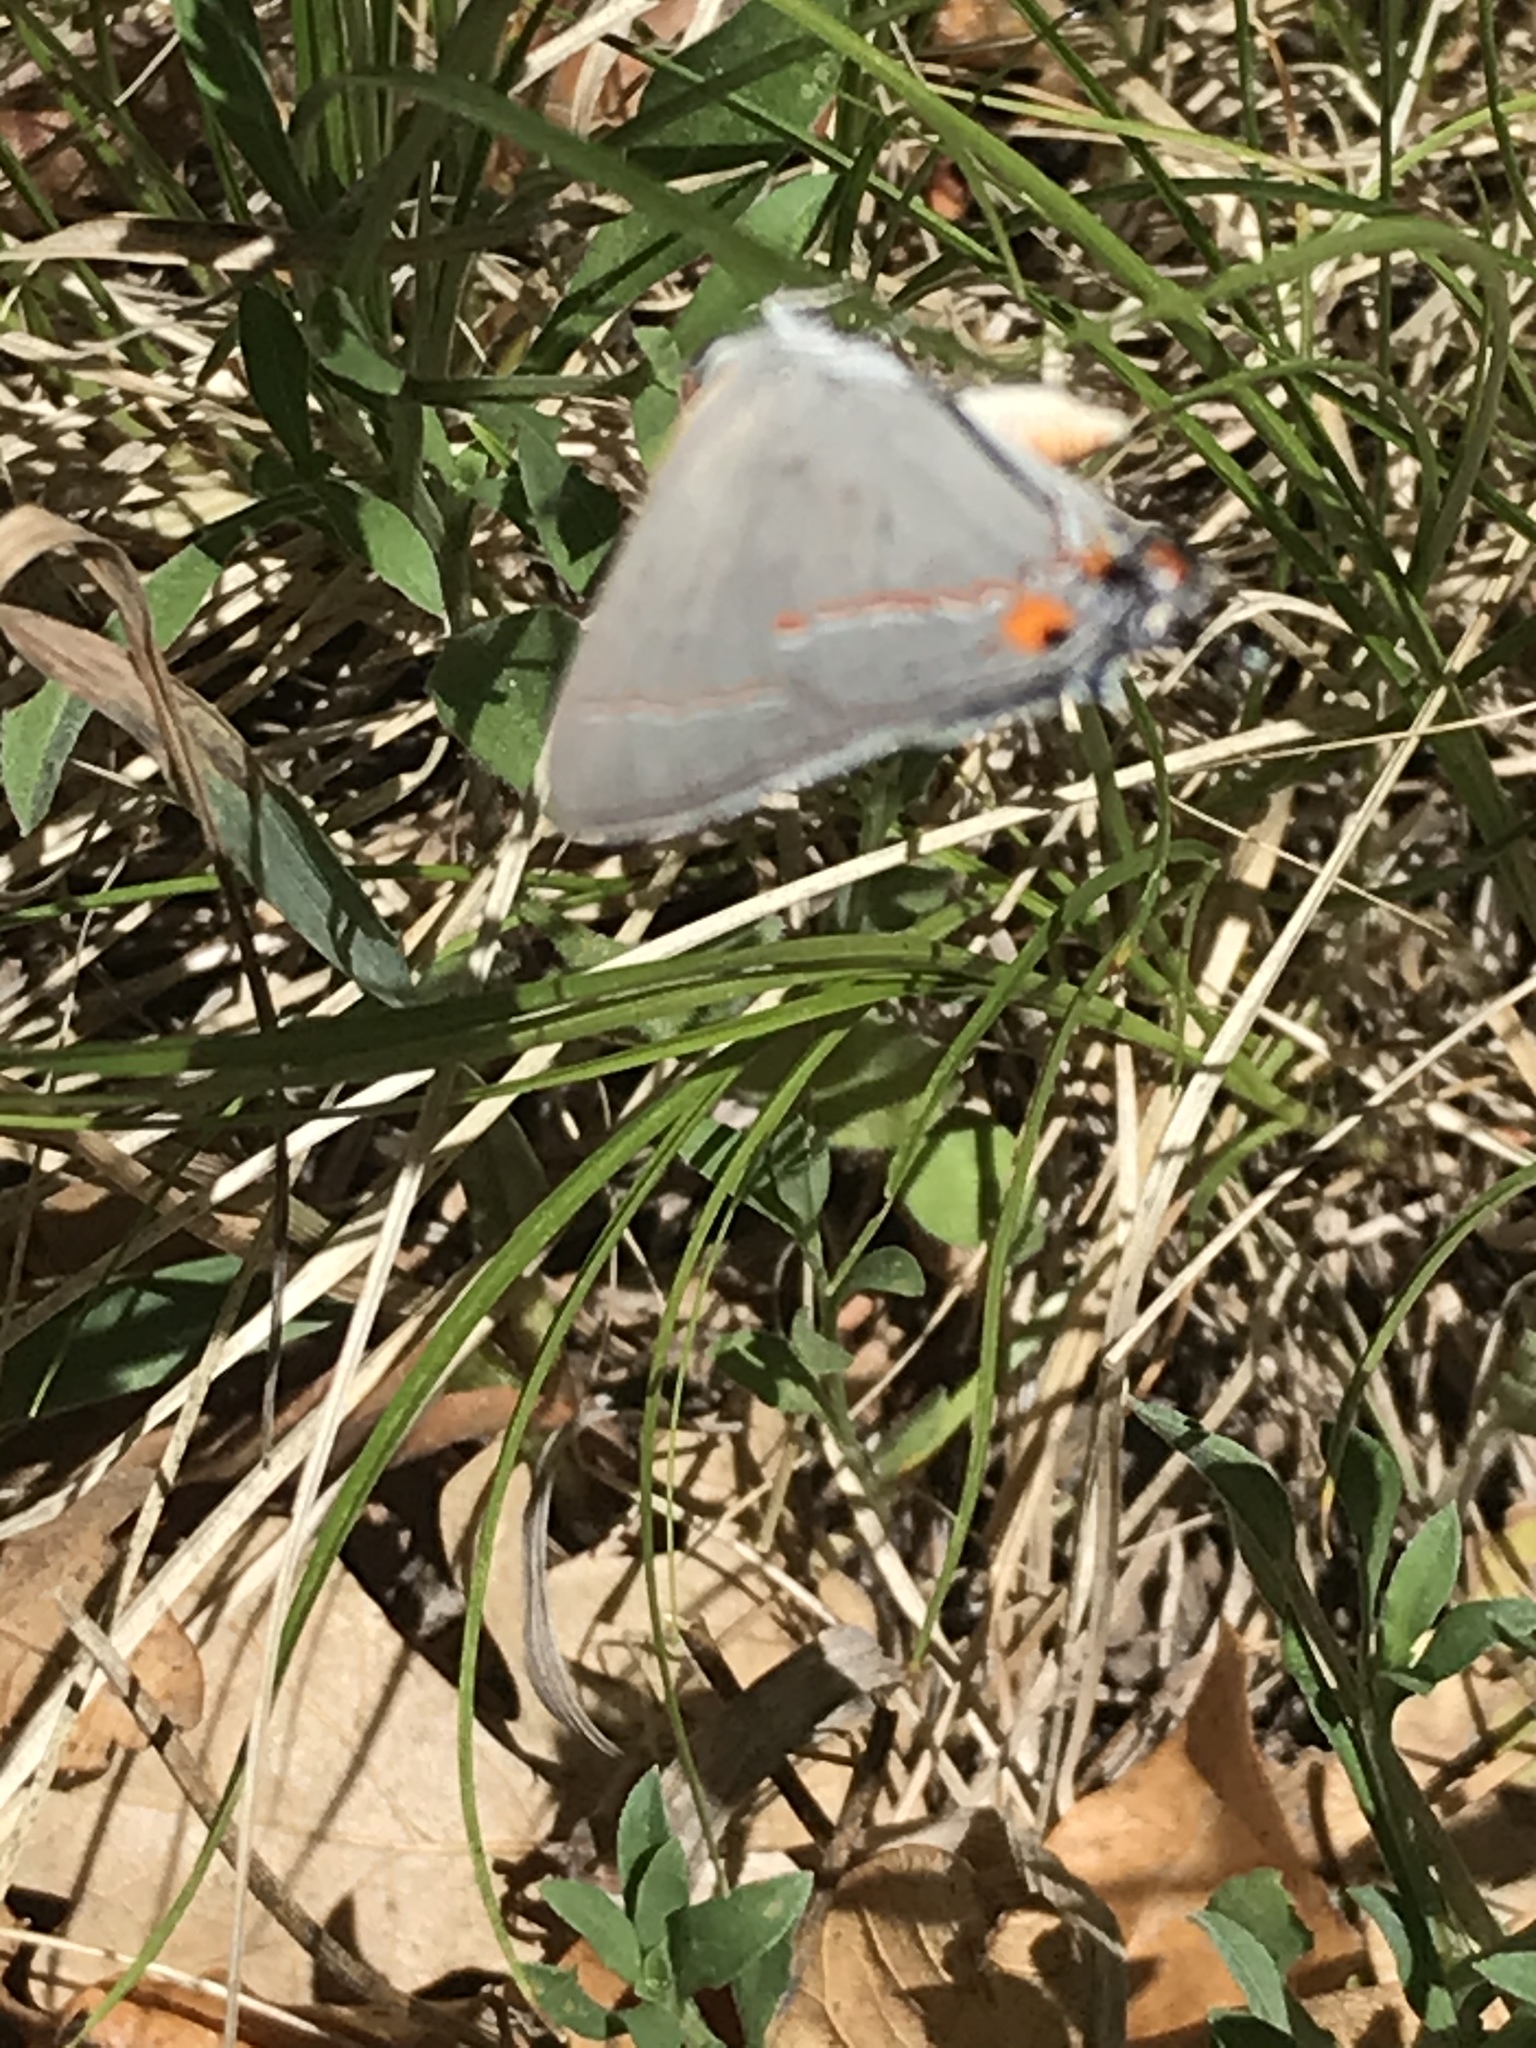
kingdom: Animalia
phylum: Arthropoda
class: Insecta
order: Lepidoptera
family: Lycaenidae
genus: Strymon
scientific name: Strymon melinus
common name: Gray hairstreak
